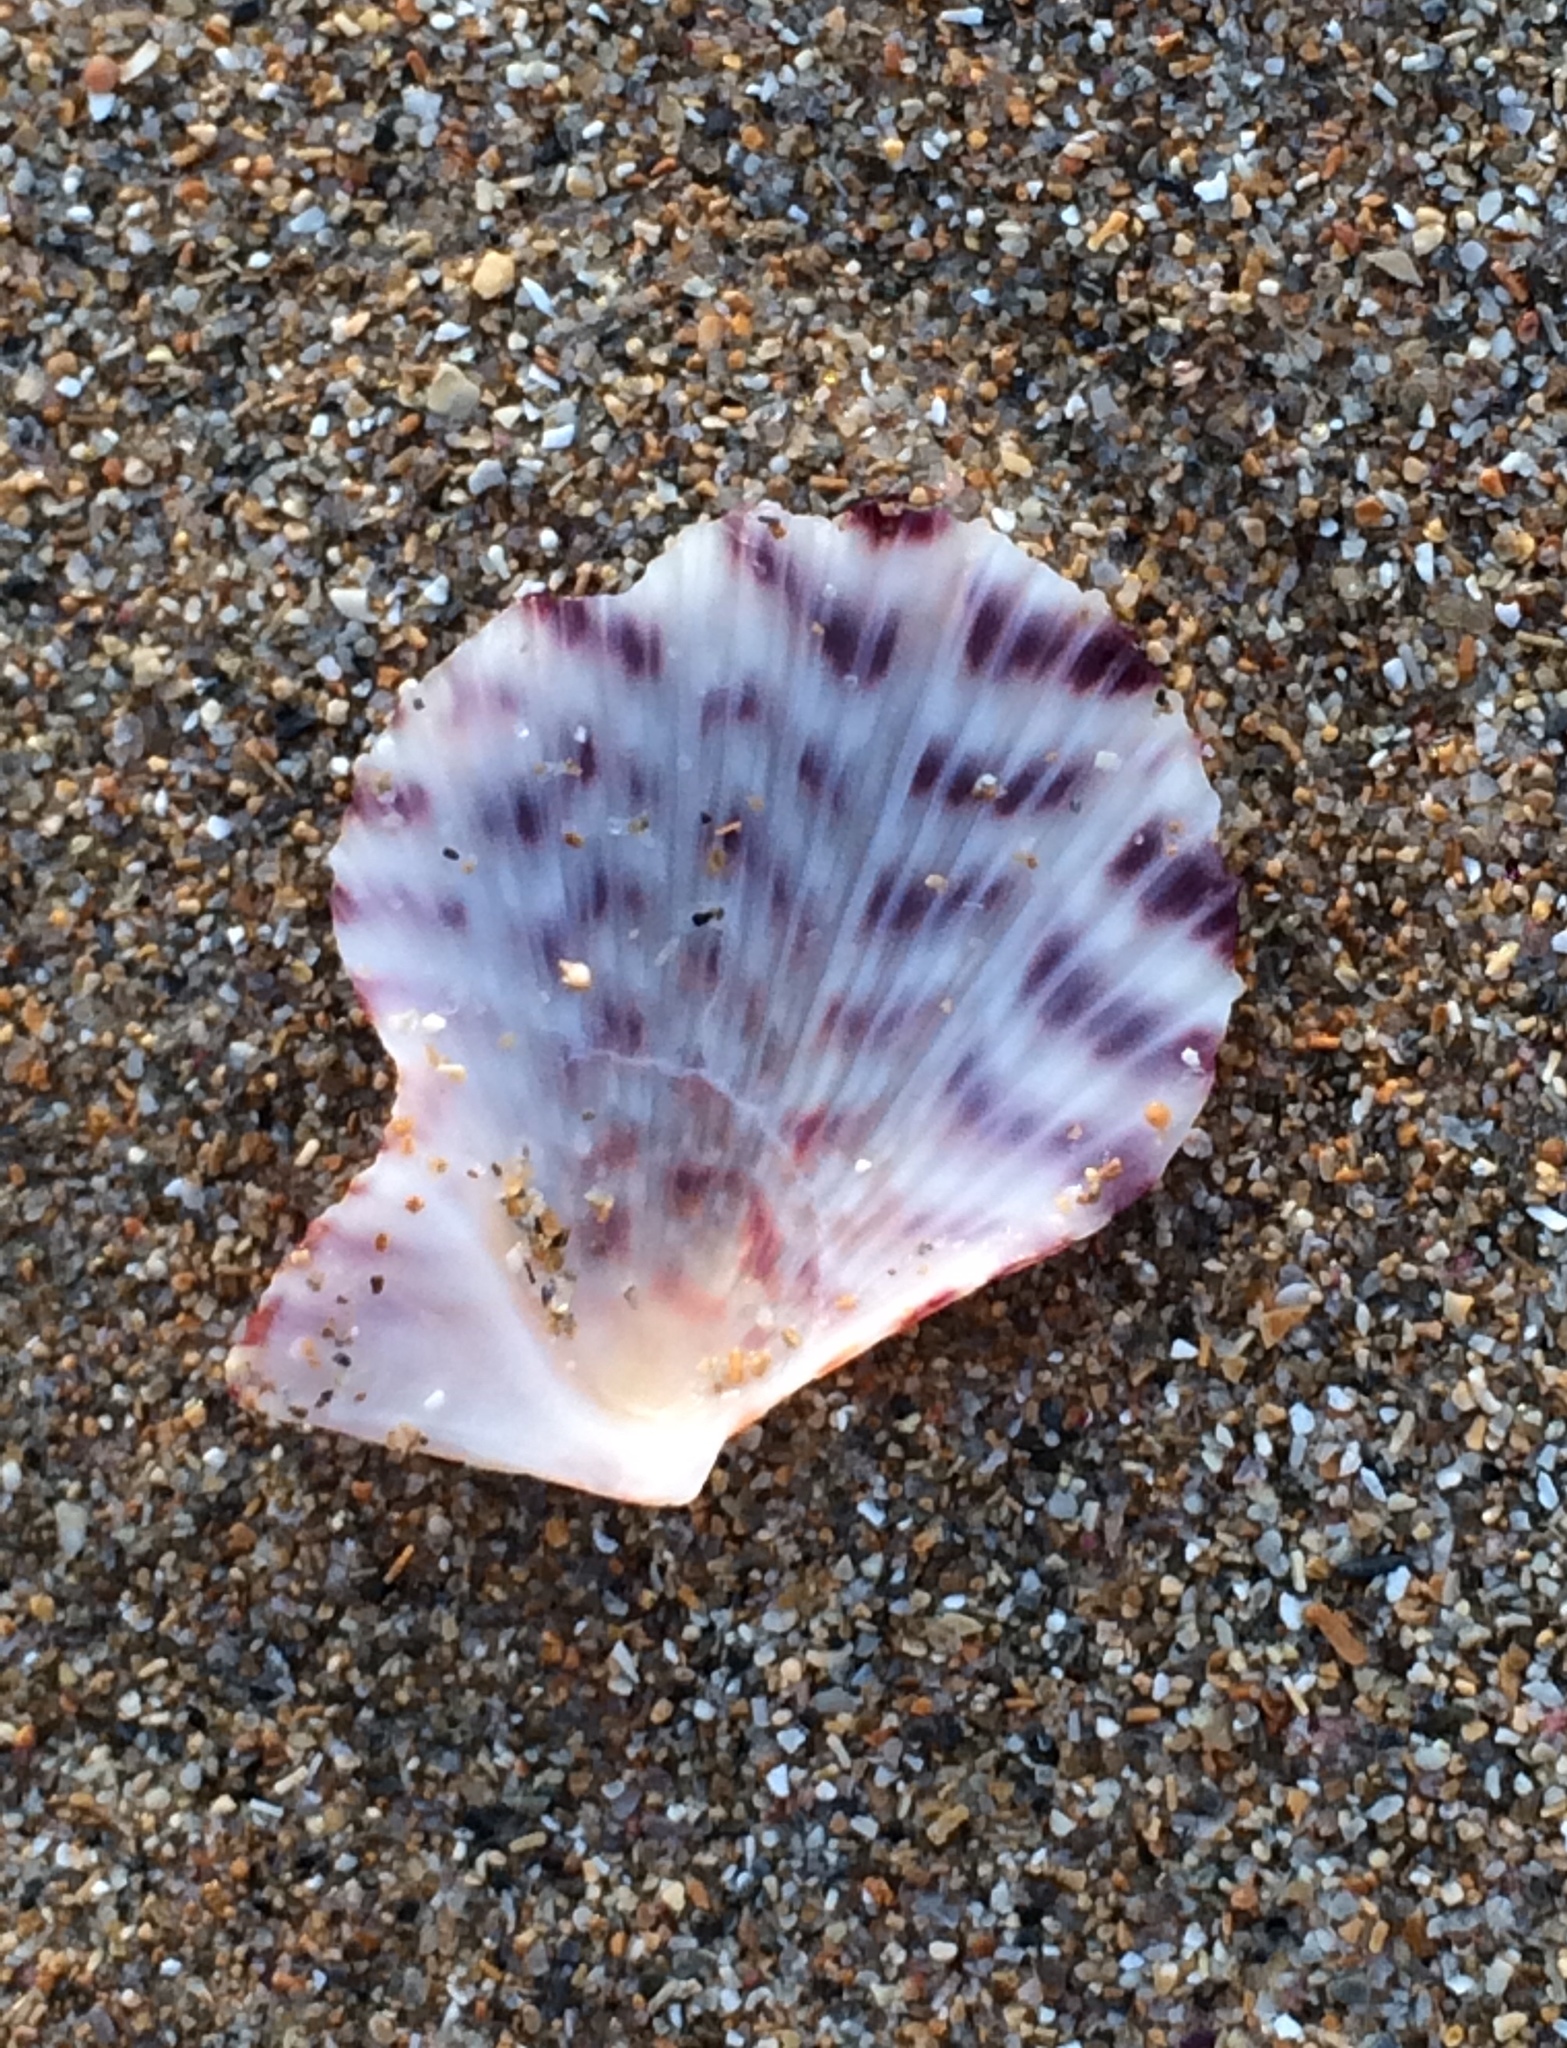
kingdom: Animalia
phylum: Mollusca
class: Bivalvia
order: Pectinida
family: Pectinidae
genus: Caribachlamys
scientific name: Caribachlamys ornata
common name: Ornate scallop
